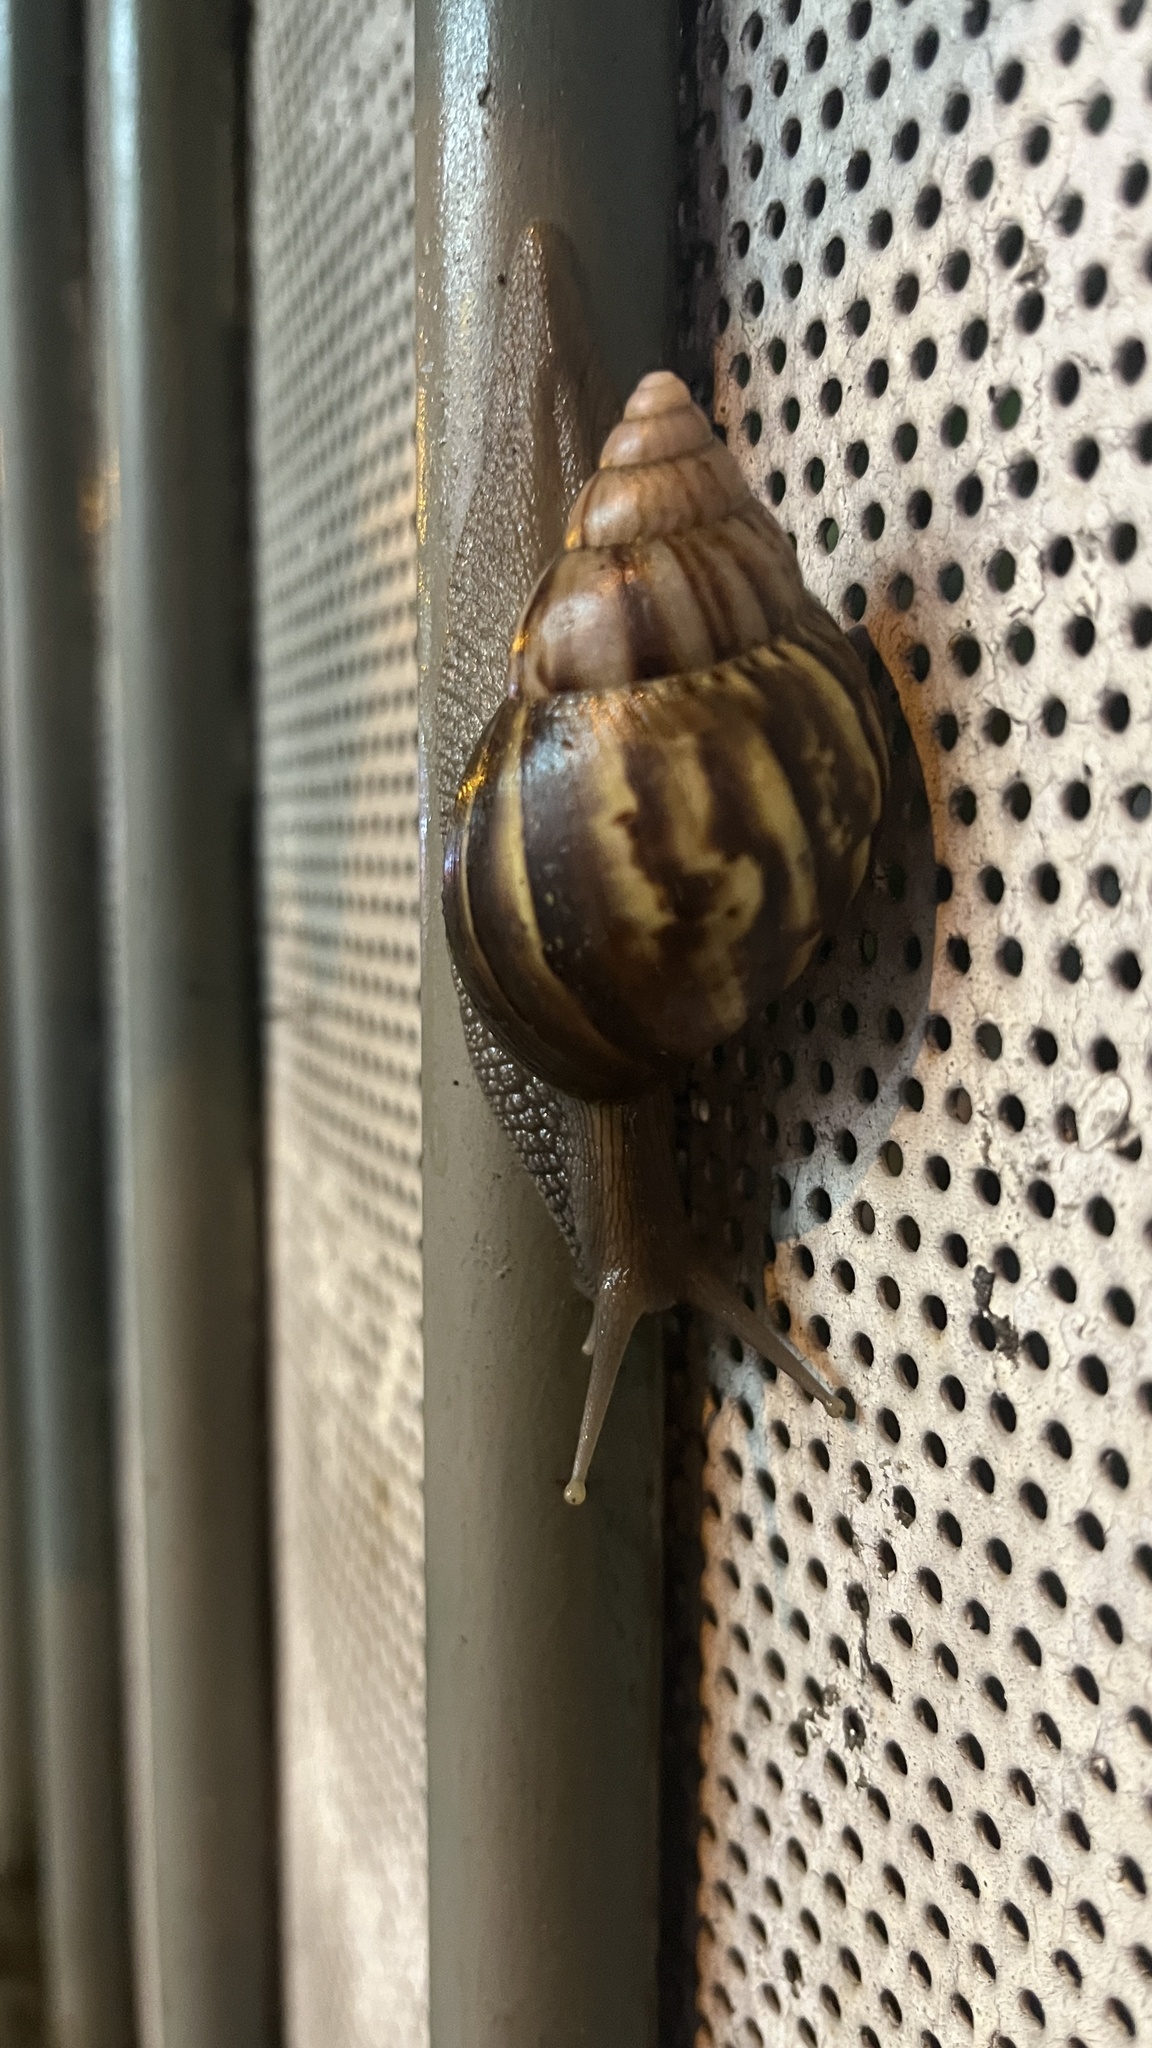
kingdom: Animalia
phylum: Mollusca
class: Gastropoda
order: Stylommatophora
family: Achatinidae
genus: Lissachatina
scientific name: Lissachatina fulica
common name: Giant african snail
